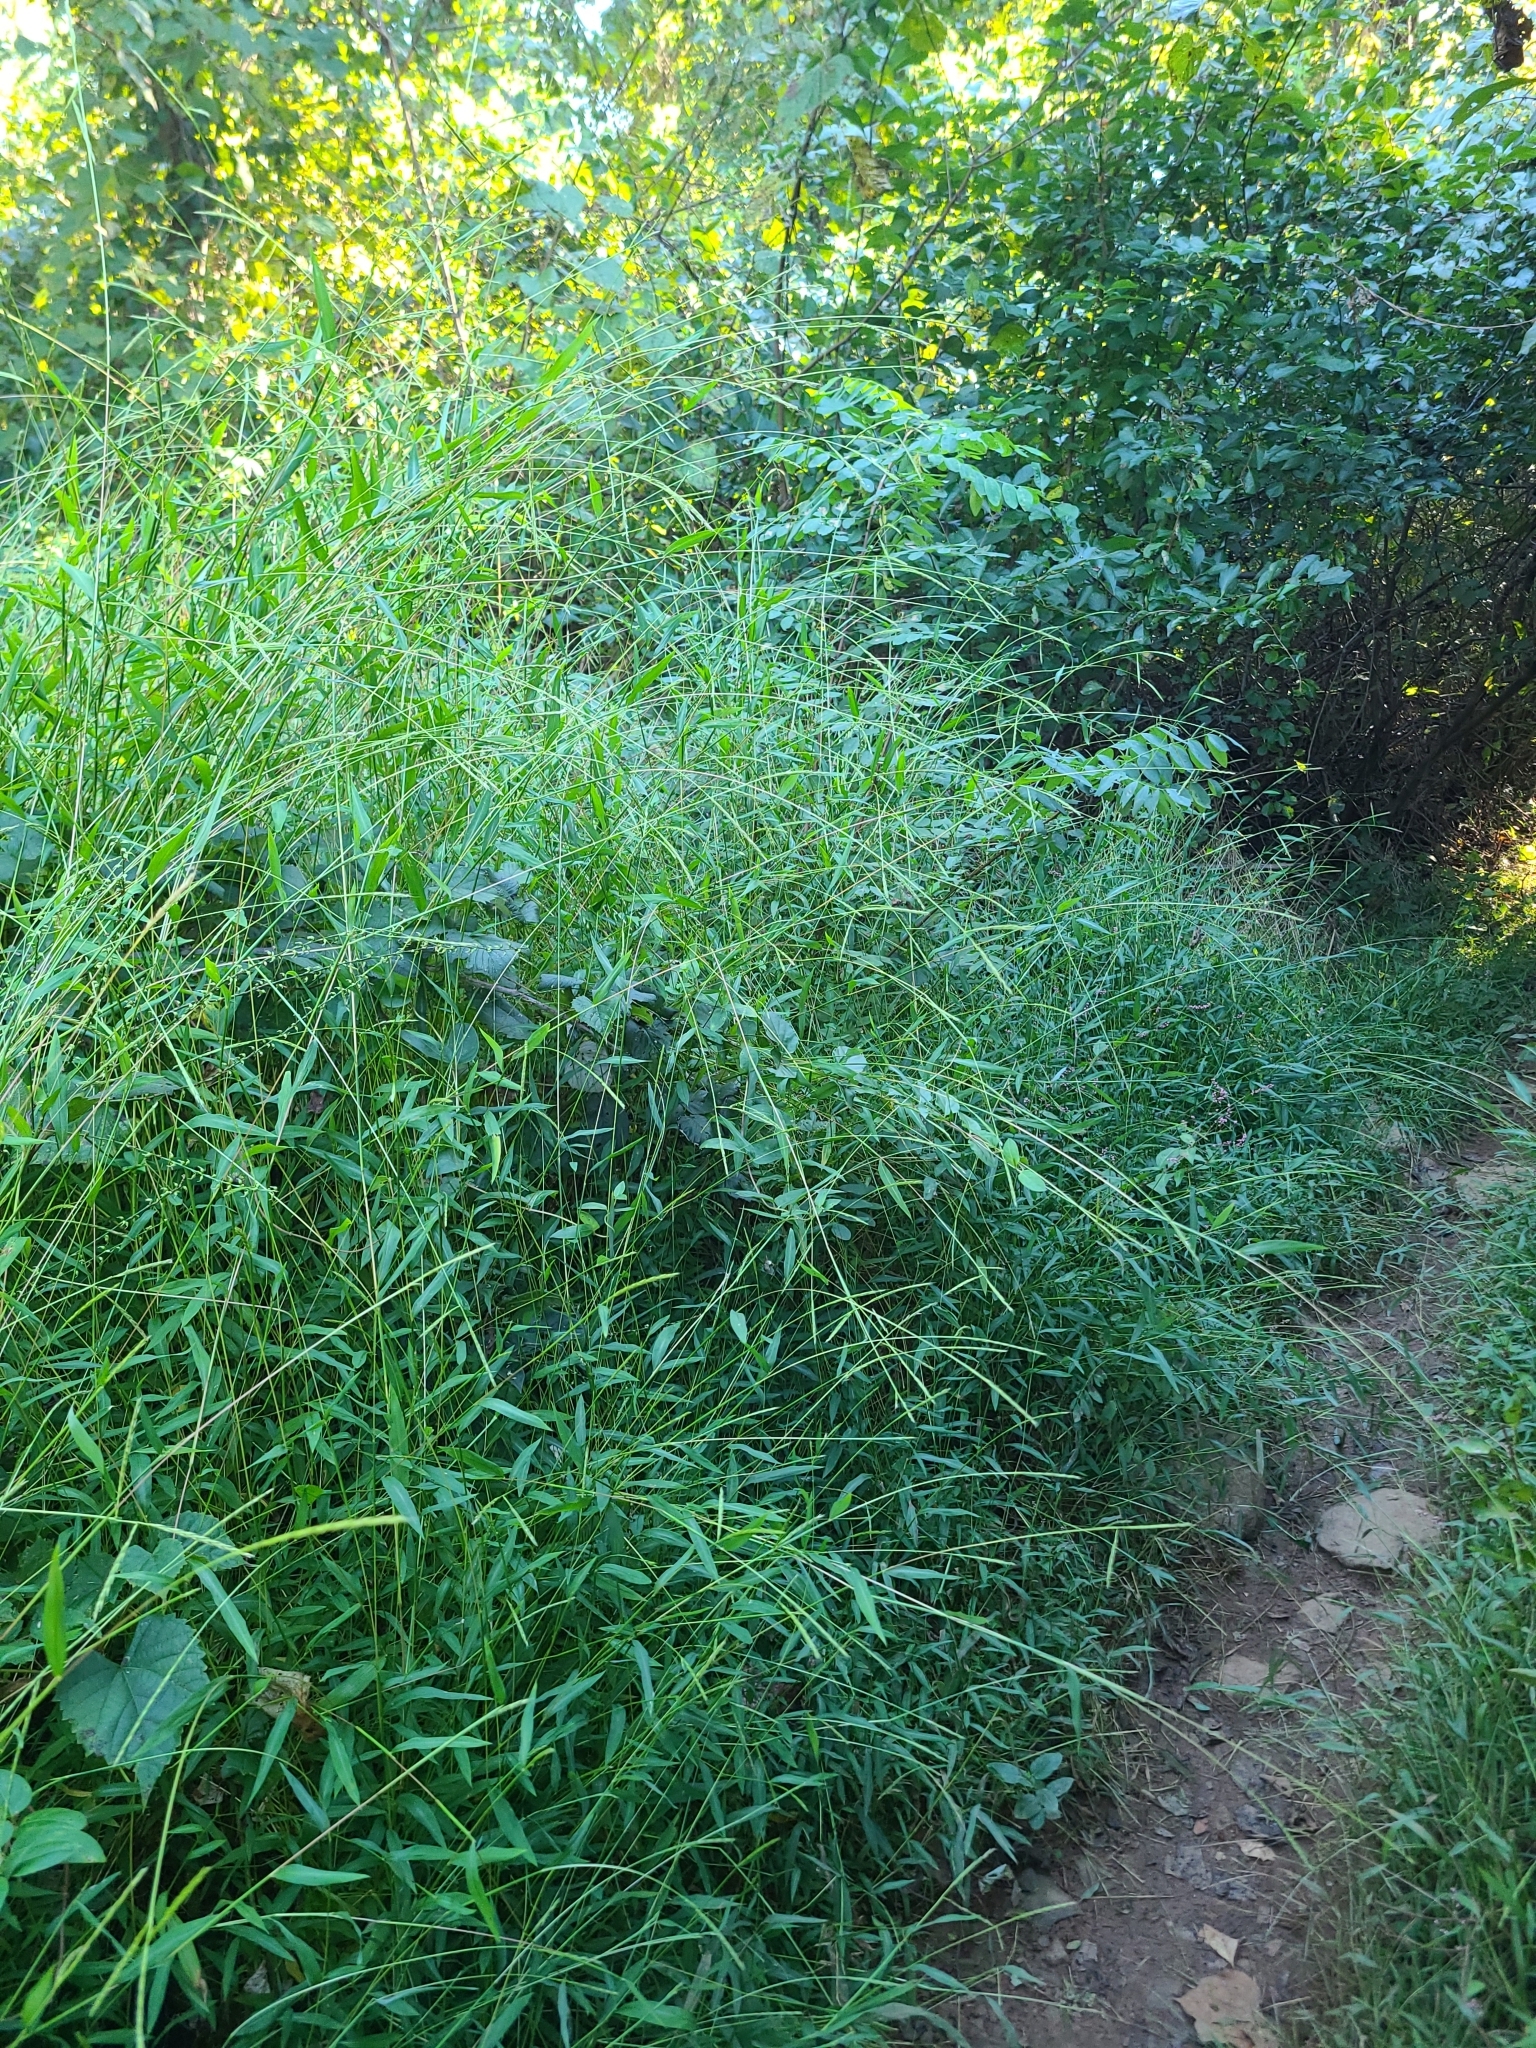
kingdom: Plantae
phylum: Tracheophyta
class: Liliopsida
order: Poales
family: Poaceae
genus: Microstegium
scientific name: Microstegium vimineum
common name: Japanese stiltgrass
